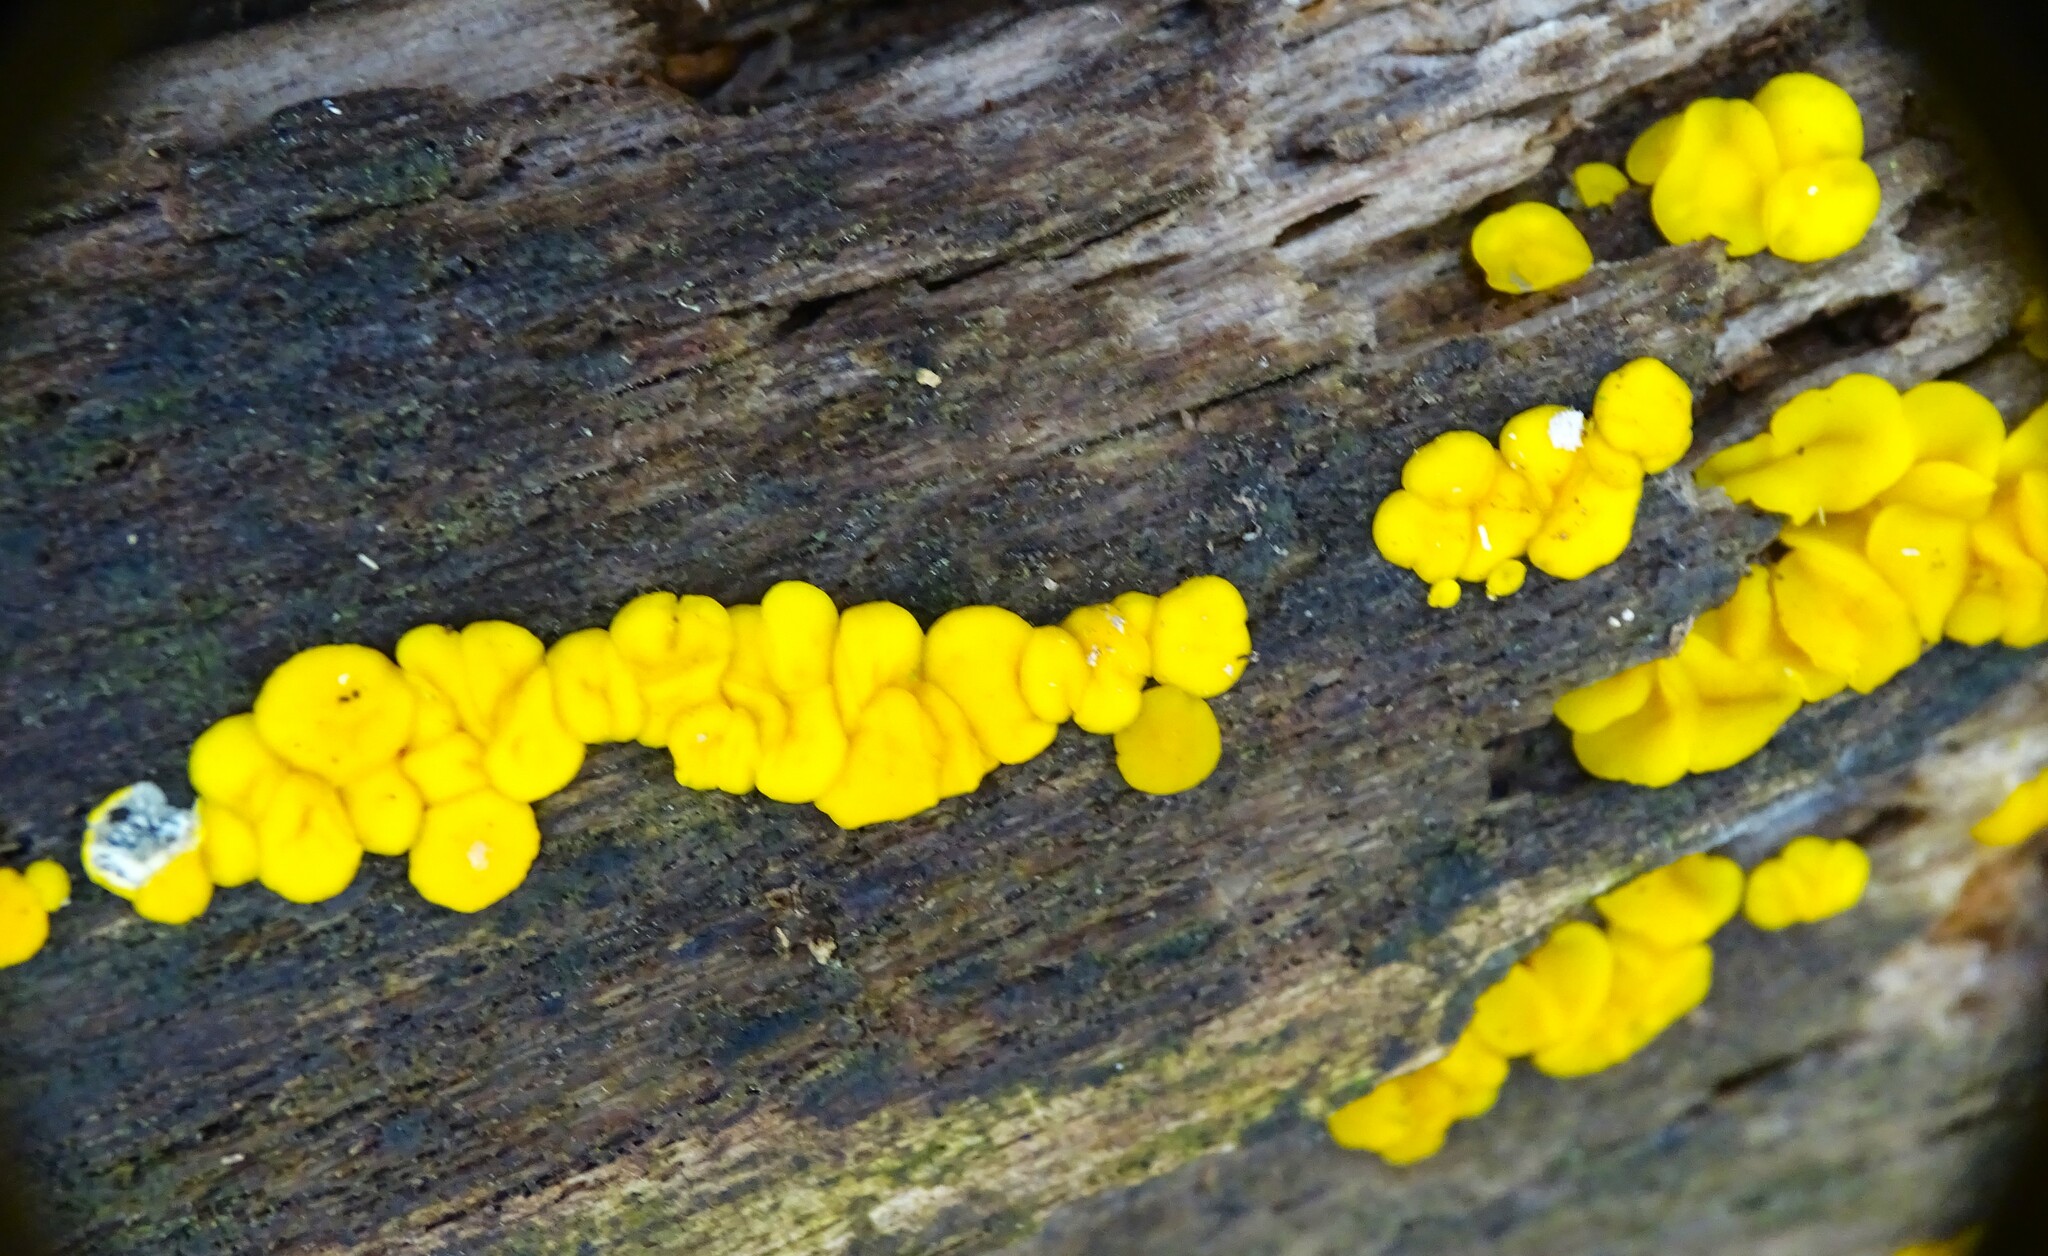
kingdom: Fungi
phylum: Ascomycota
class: Leotiomycetes
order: Helotiales
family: Pezizellaceae
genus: Calycina
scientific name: Calycina citrina
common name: Yellow fairy cups
